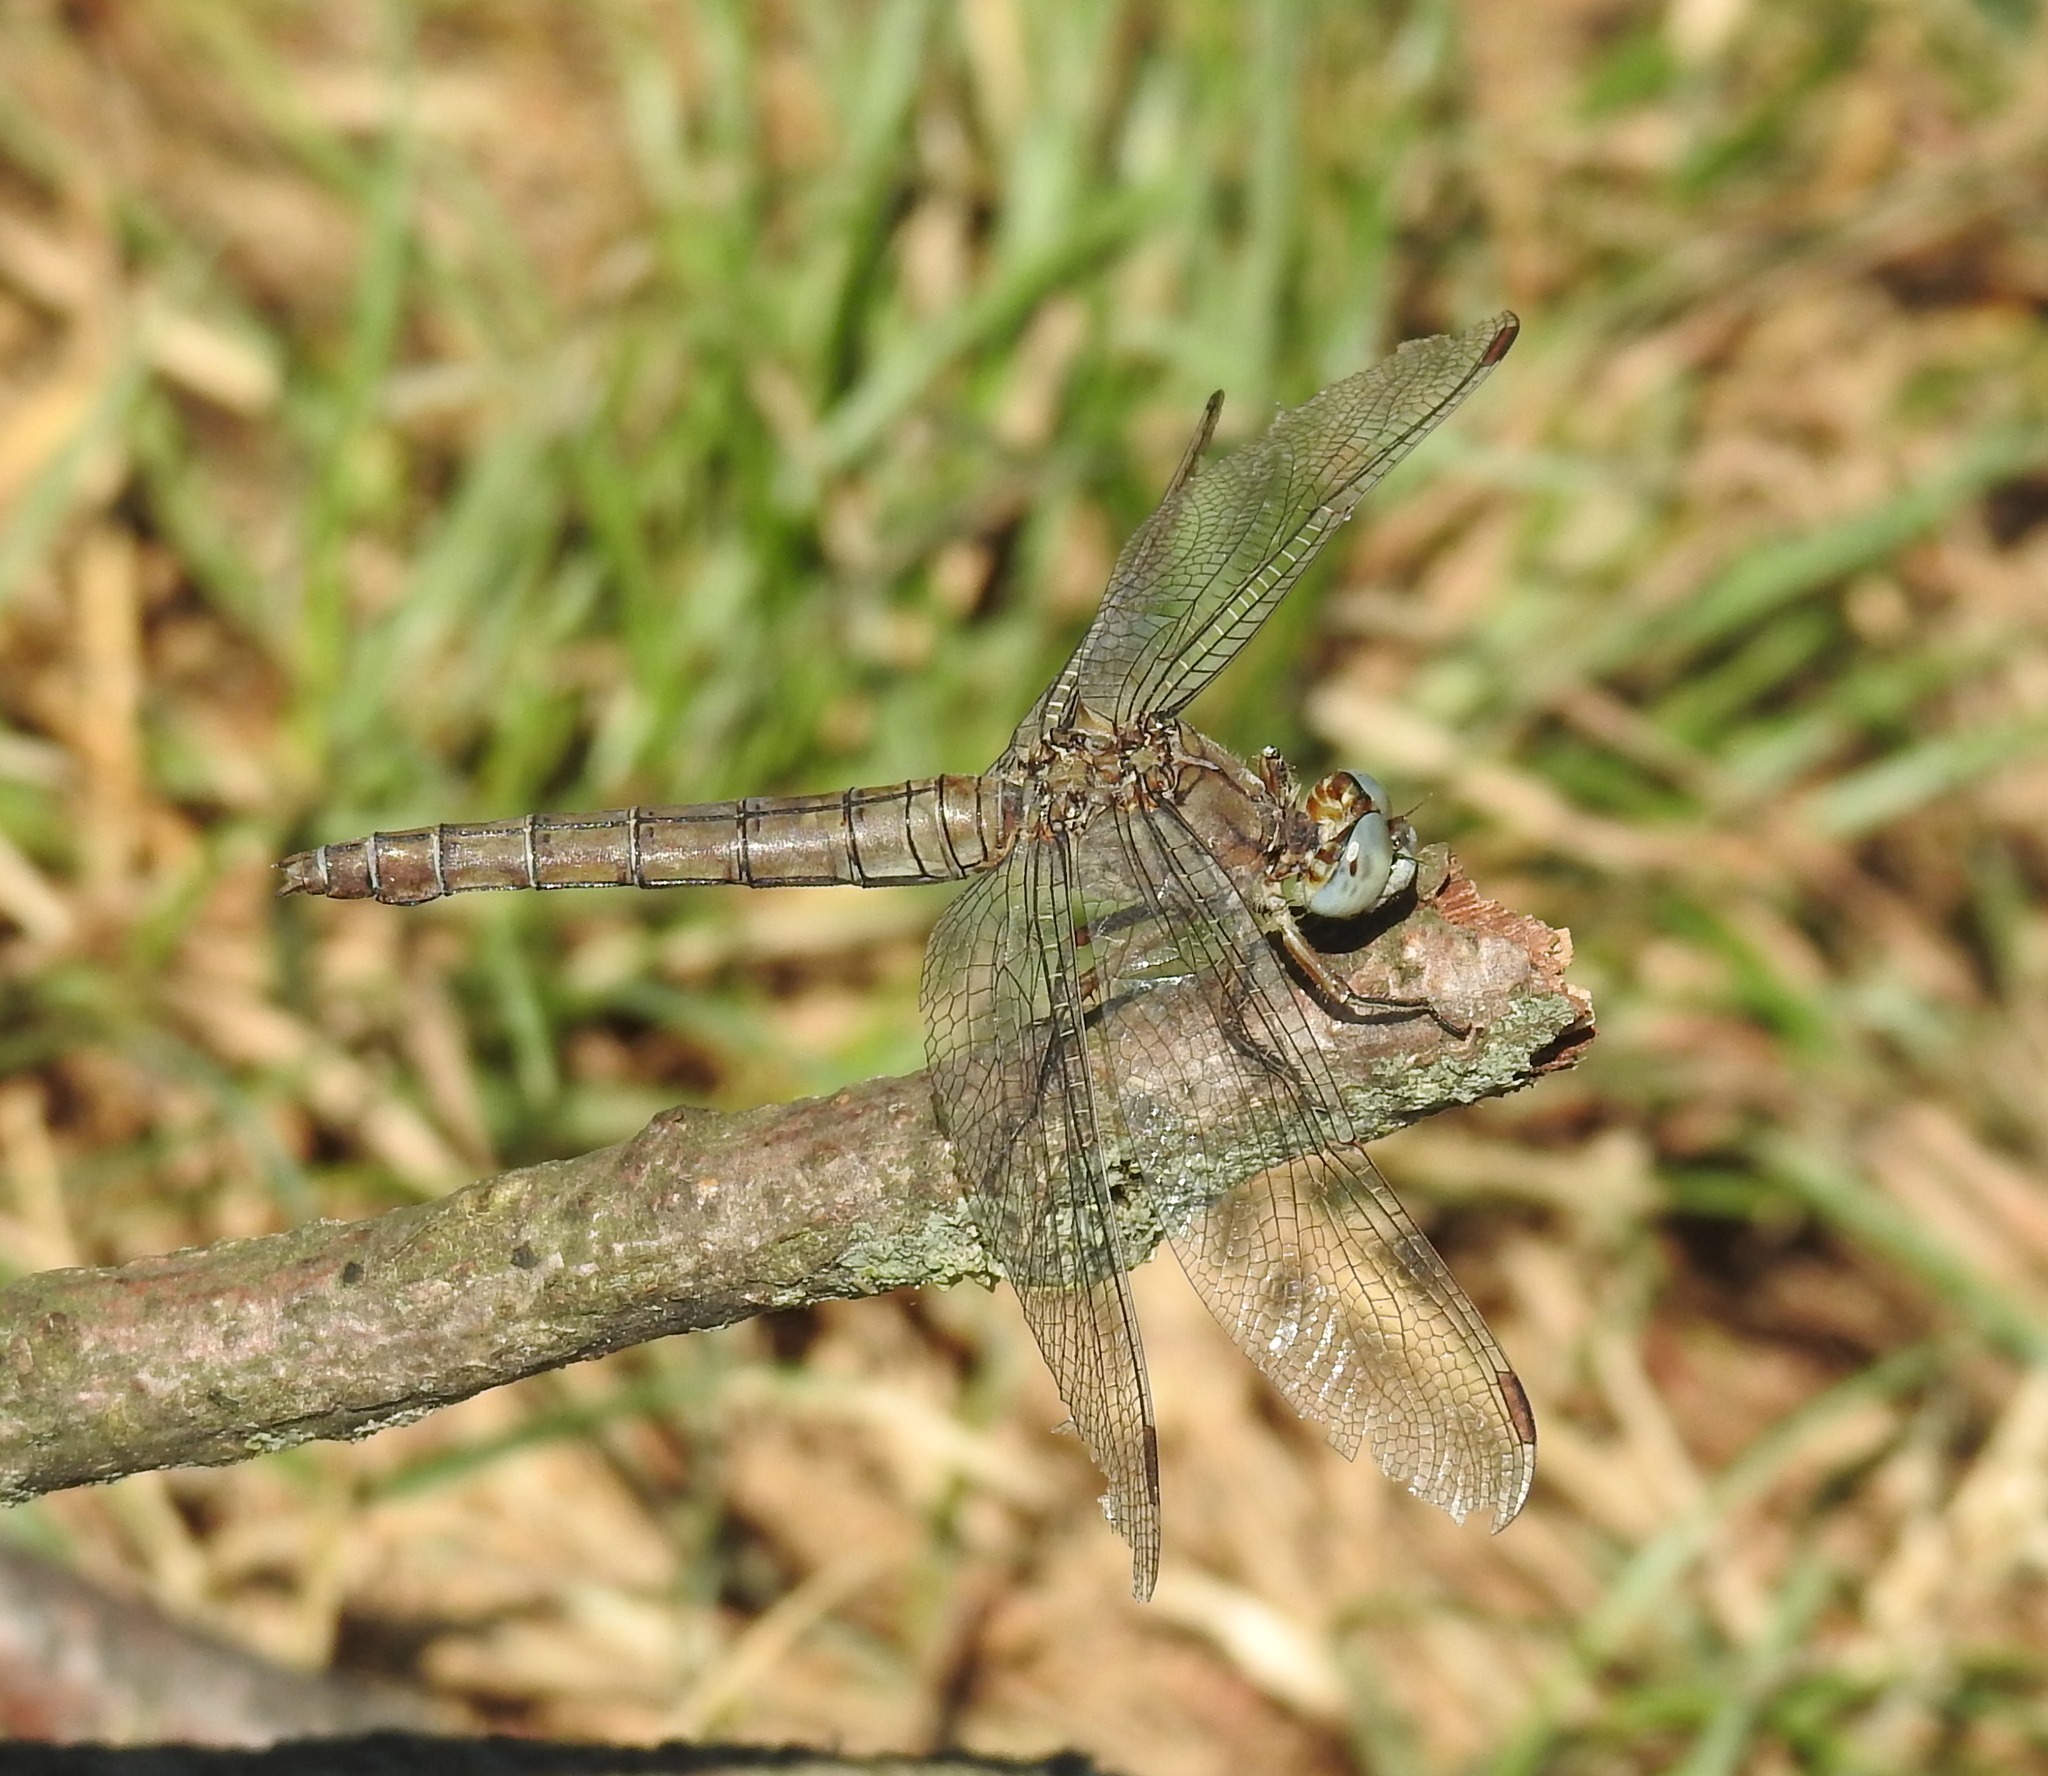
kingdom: Animalia
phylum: Arthropoda
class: Insecta
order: Odonata
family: Libellulidae
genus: Orthetrum
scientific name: Orthetrum brunneum
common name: Southern skimmer
